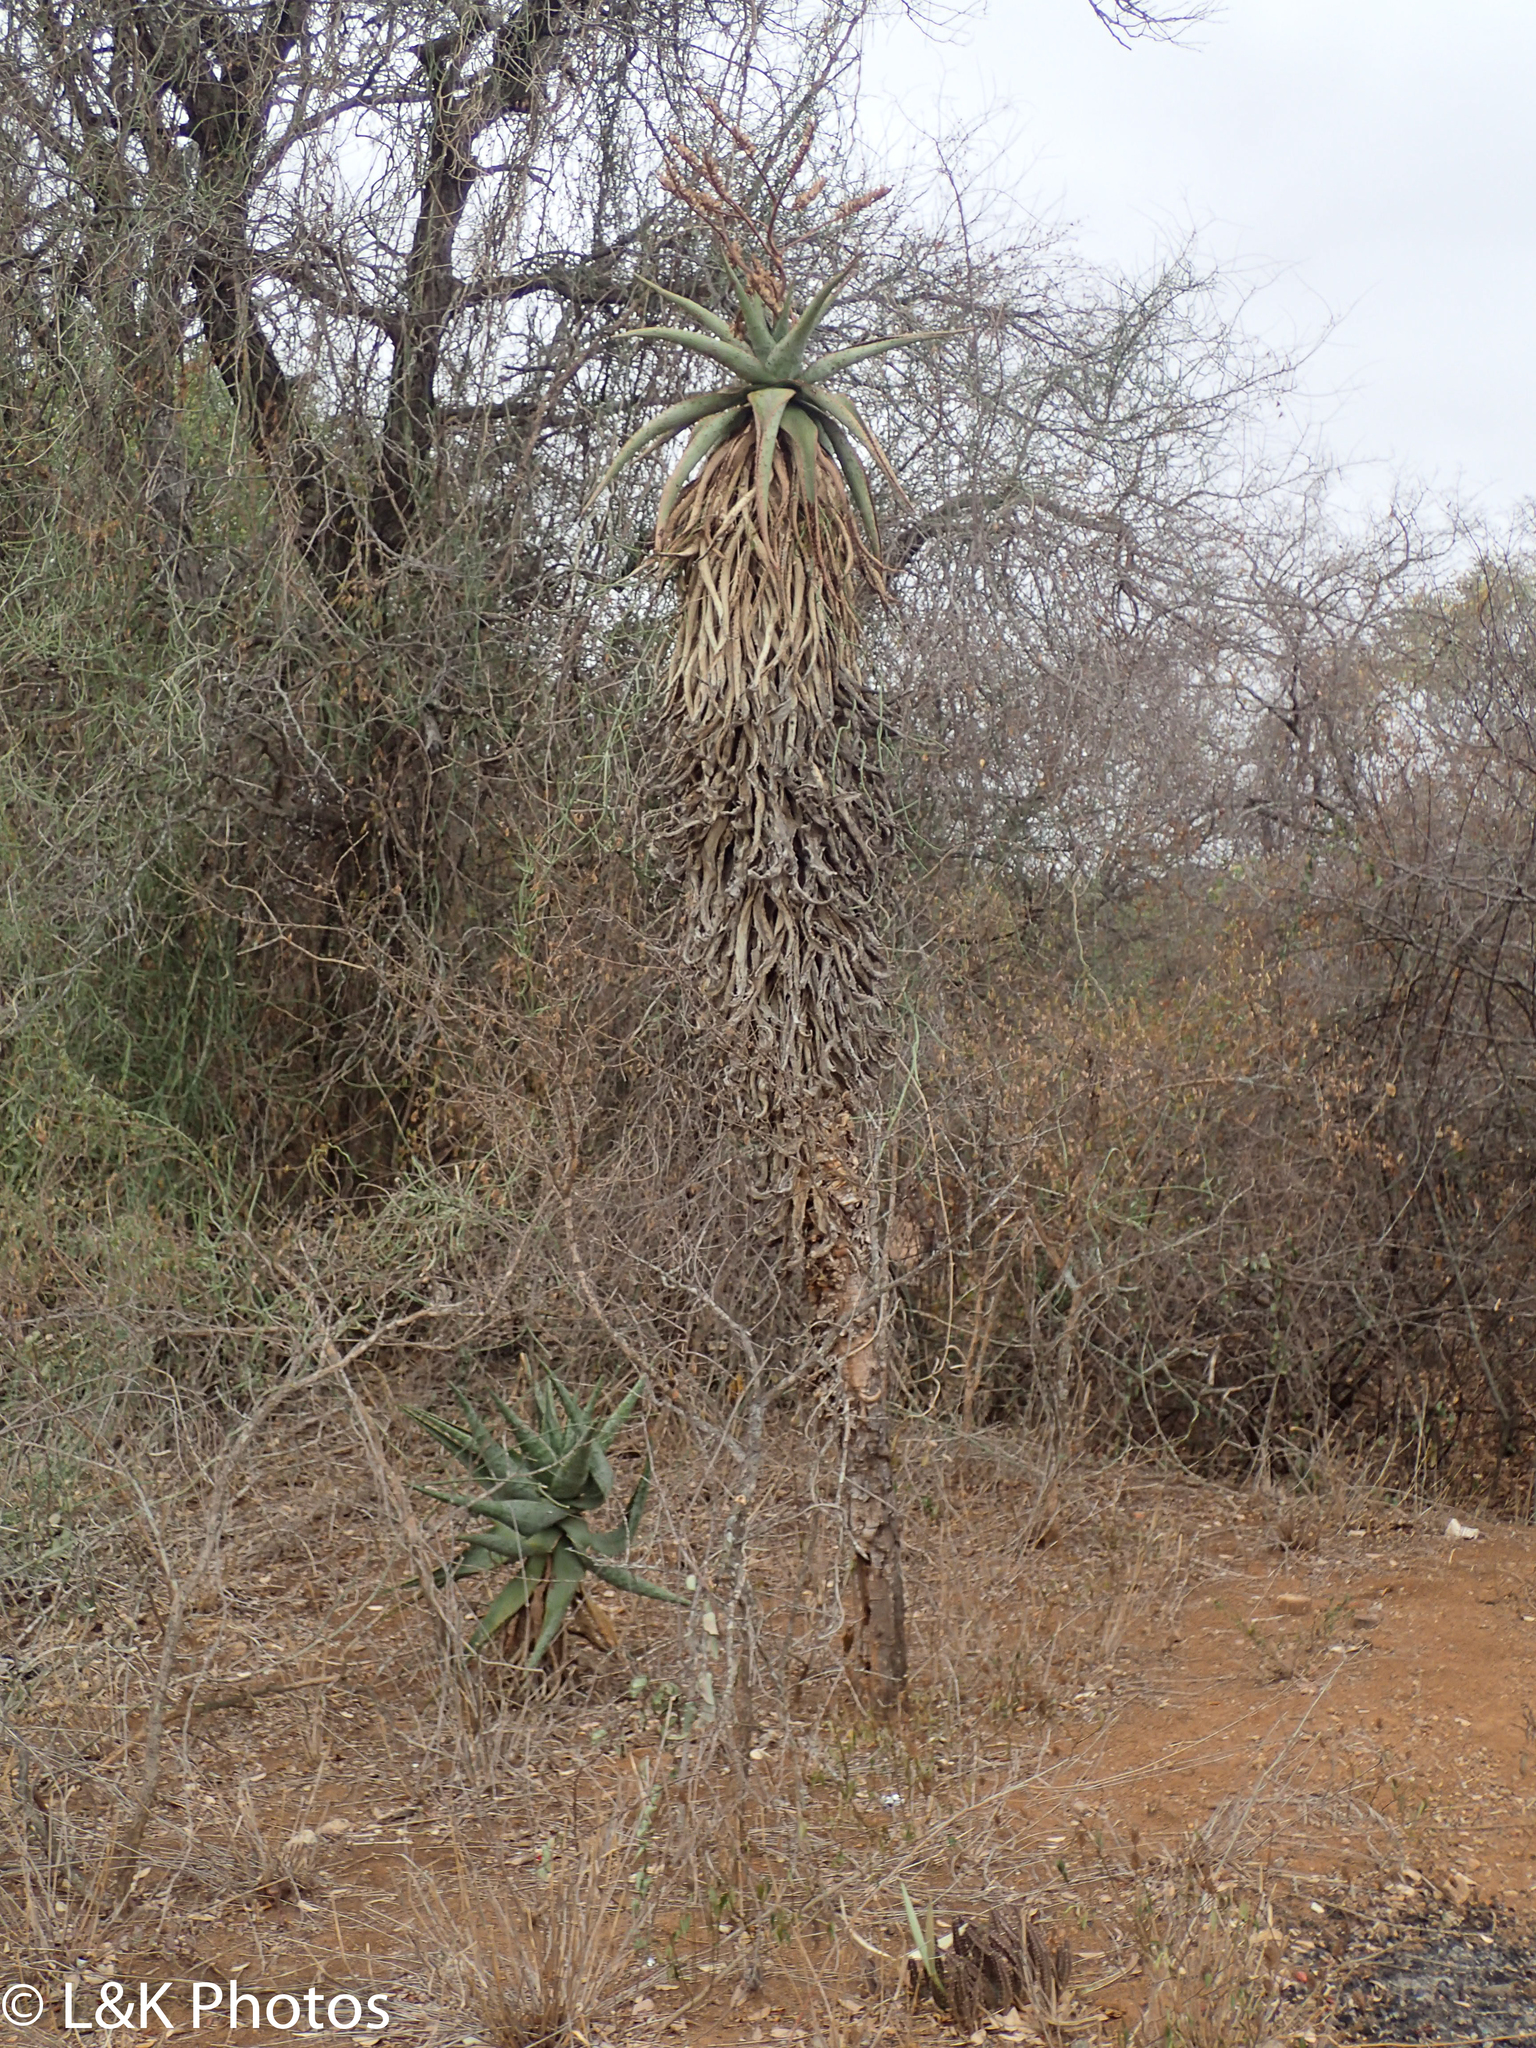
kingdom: Plantae
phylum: Tracheophyta
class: Liliopsida
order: Asparagales
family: Asphodelaceae
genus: Aloe
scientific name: Aloe marlothii
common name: Flat-flowered aloe
